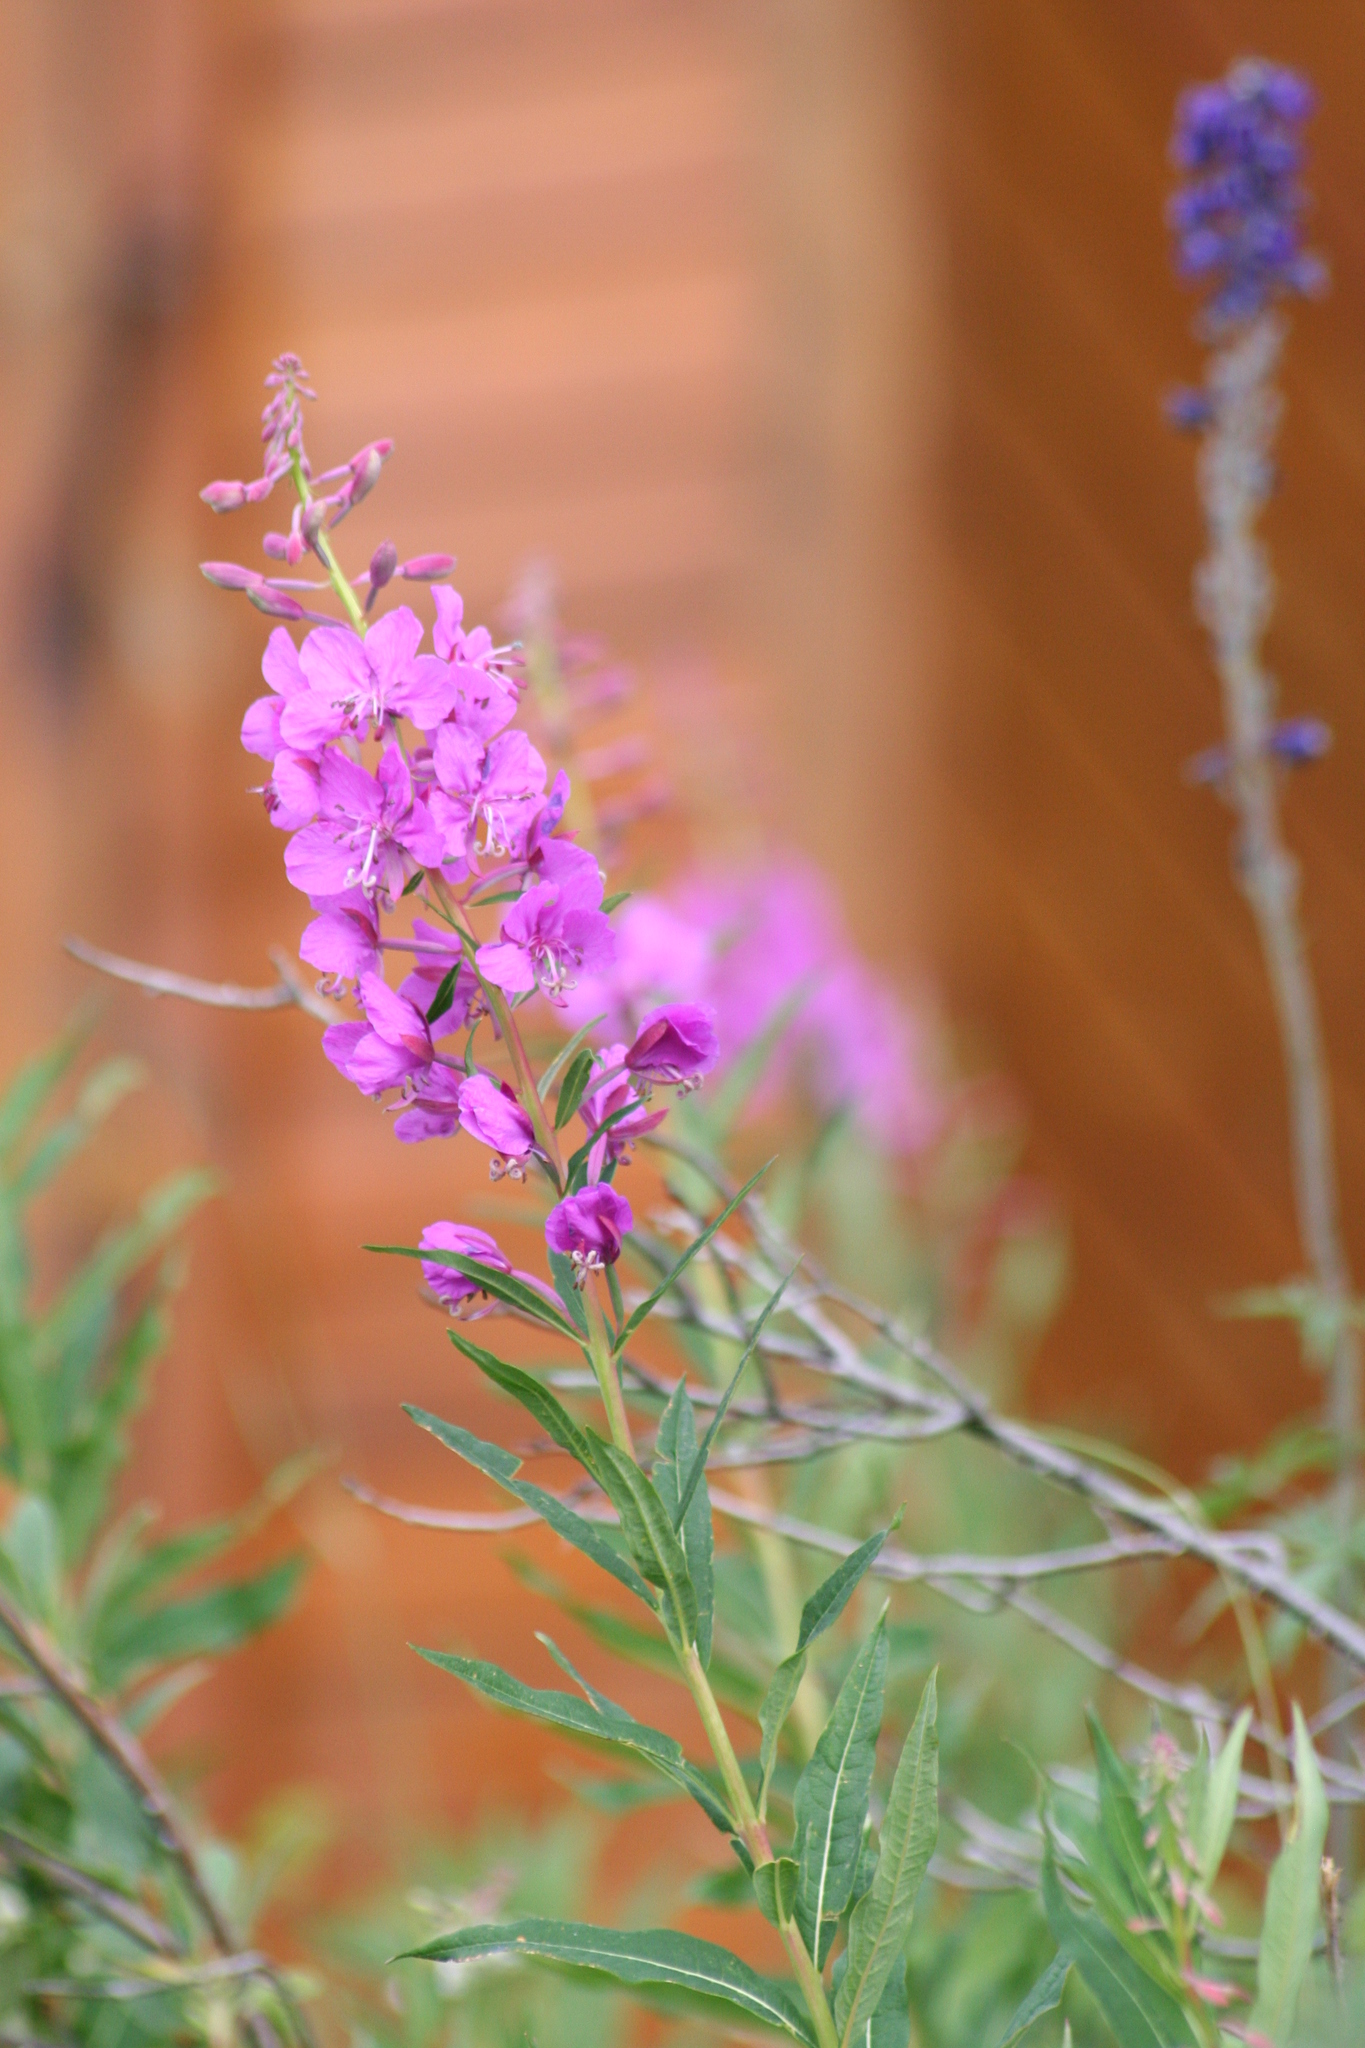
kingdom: Plantae
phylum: Tracheophyta
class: Magnoliopsida
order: Myrtales
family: Onagraceae
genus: Chamaenerion
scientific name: Chamaenerion angustifolium
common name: Fireweed
